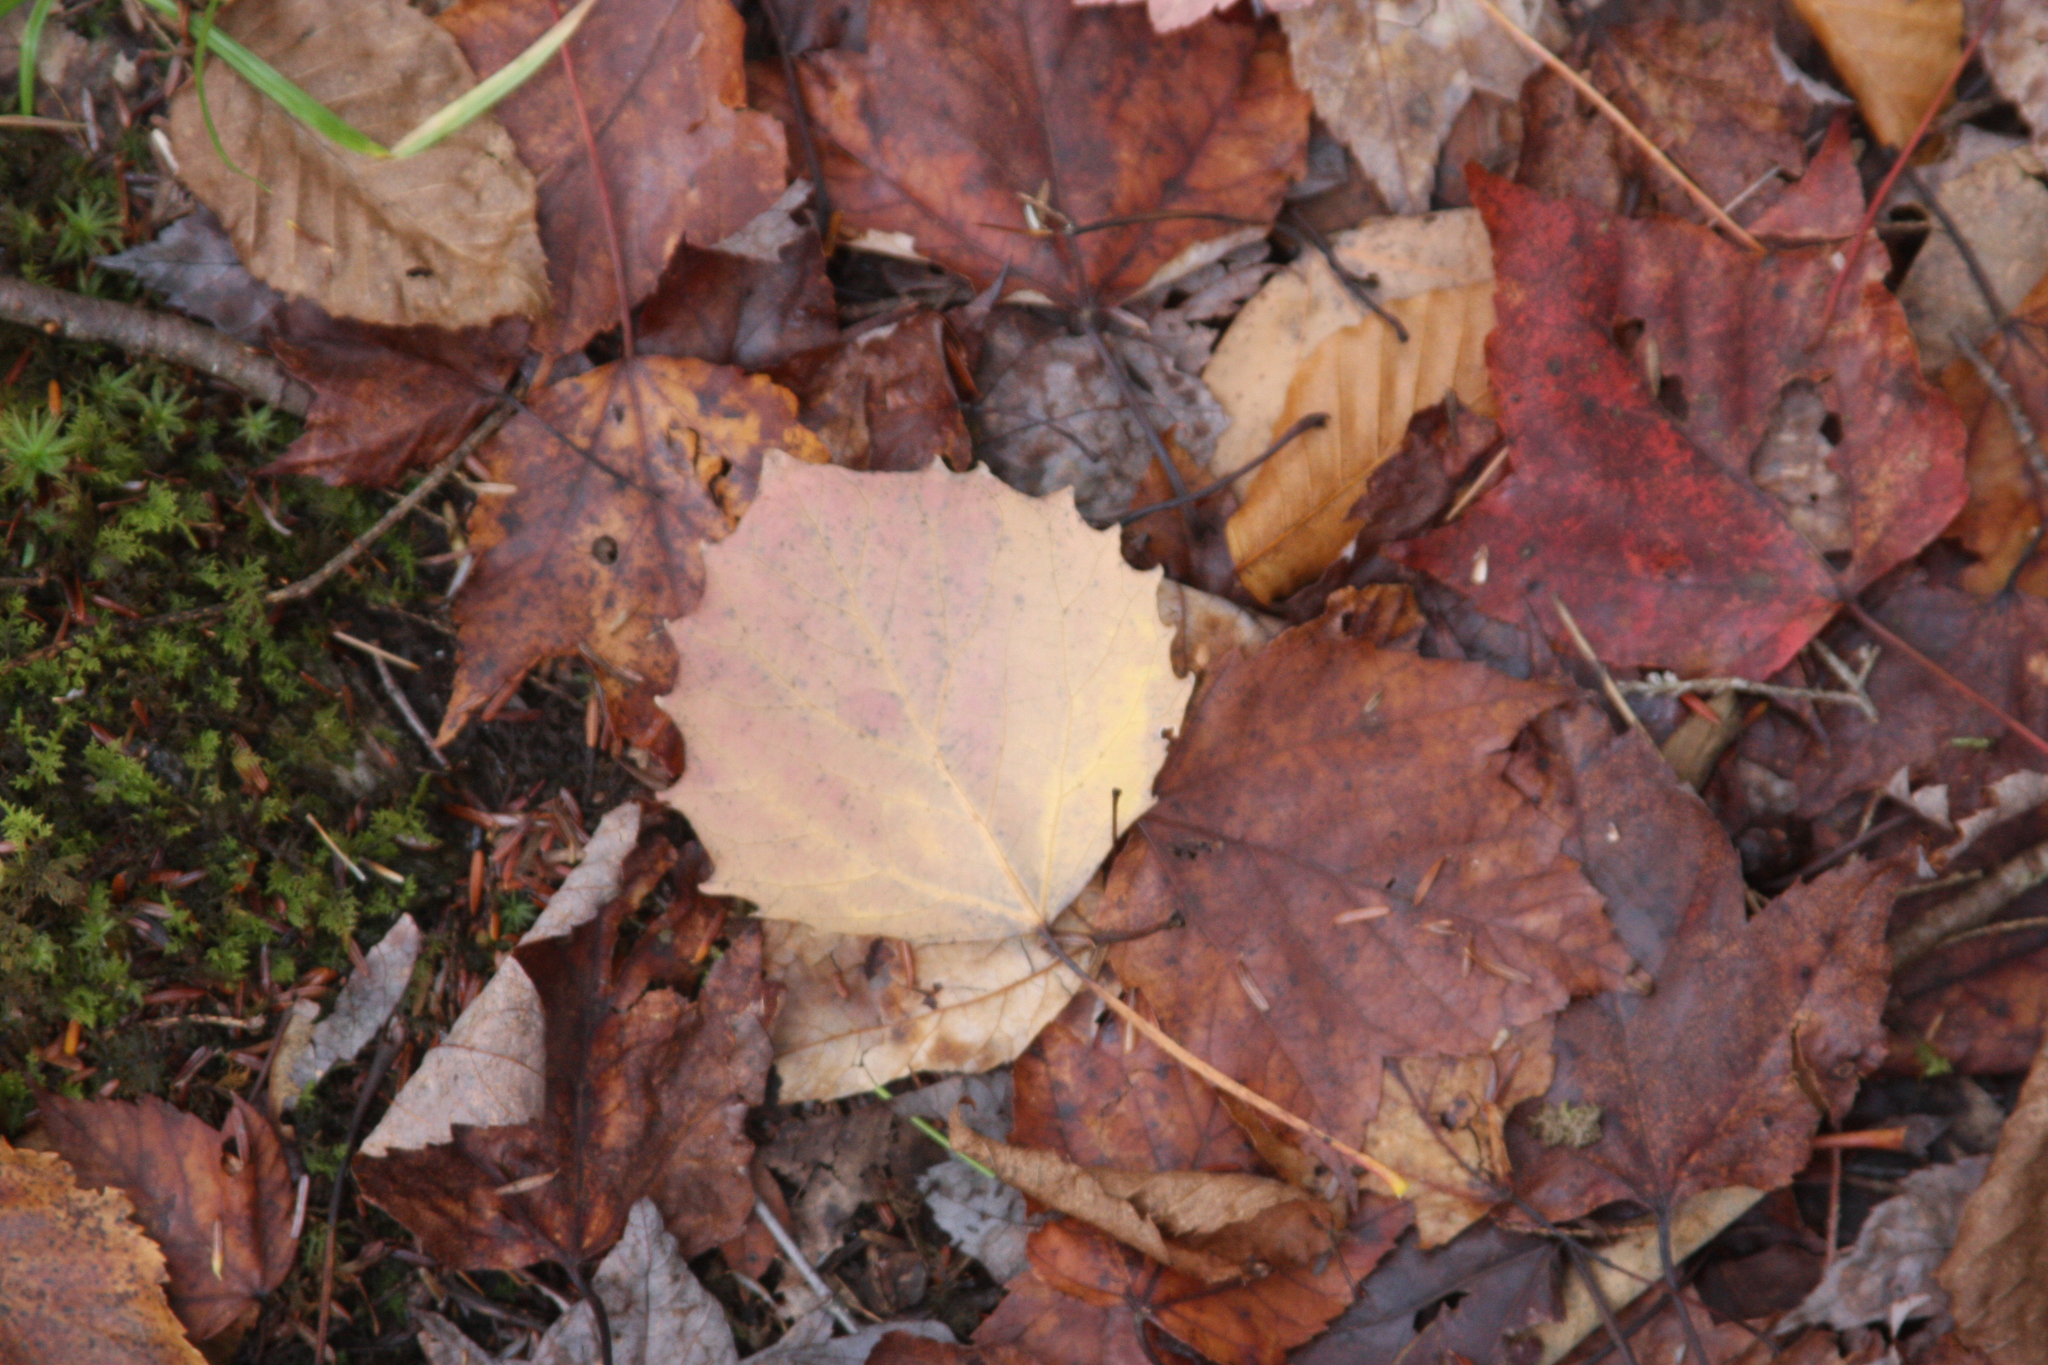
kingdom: Plantae
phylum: Tracheophyta
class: Magnoliopsida
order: Malpighiales
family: Salicaceae
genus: Populus
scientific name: Populus grandidentata
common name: Bigtooth aspen
